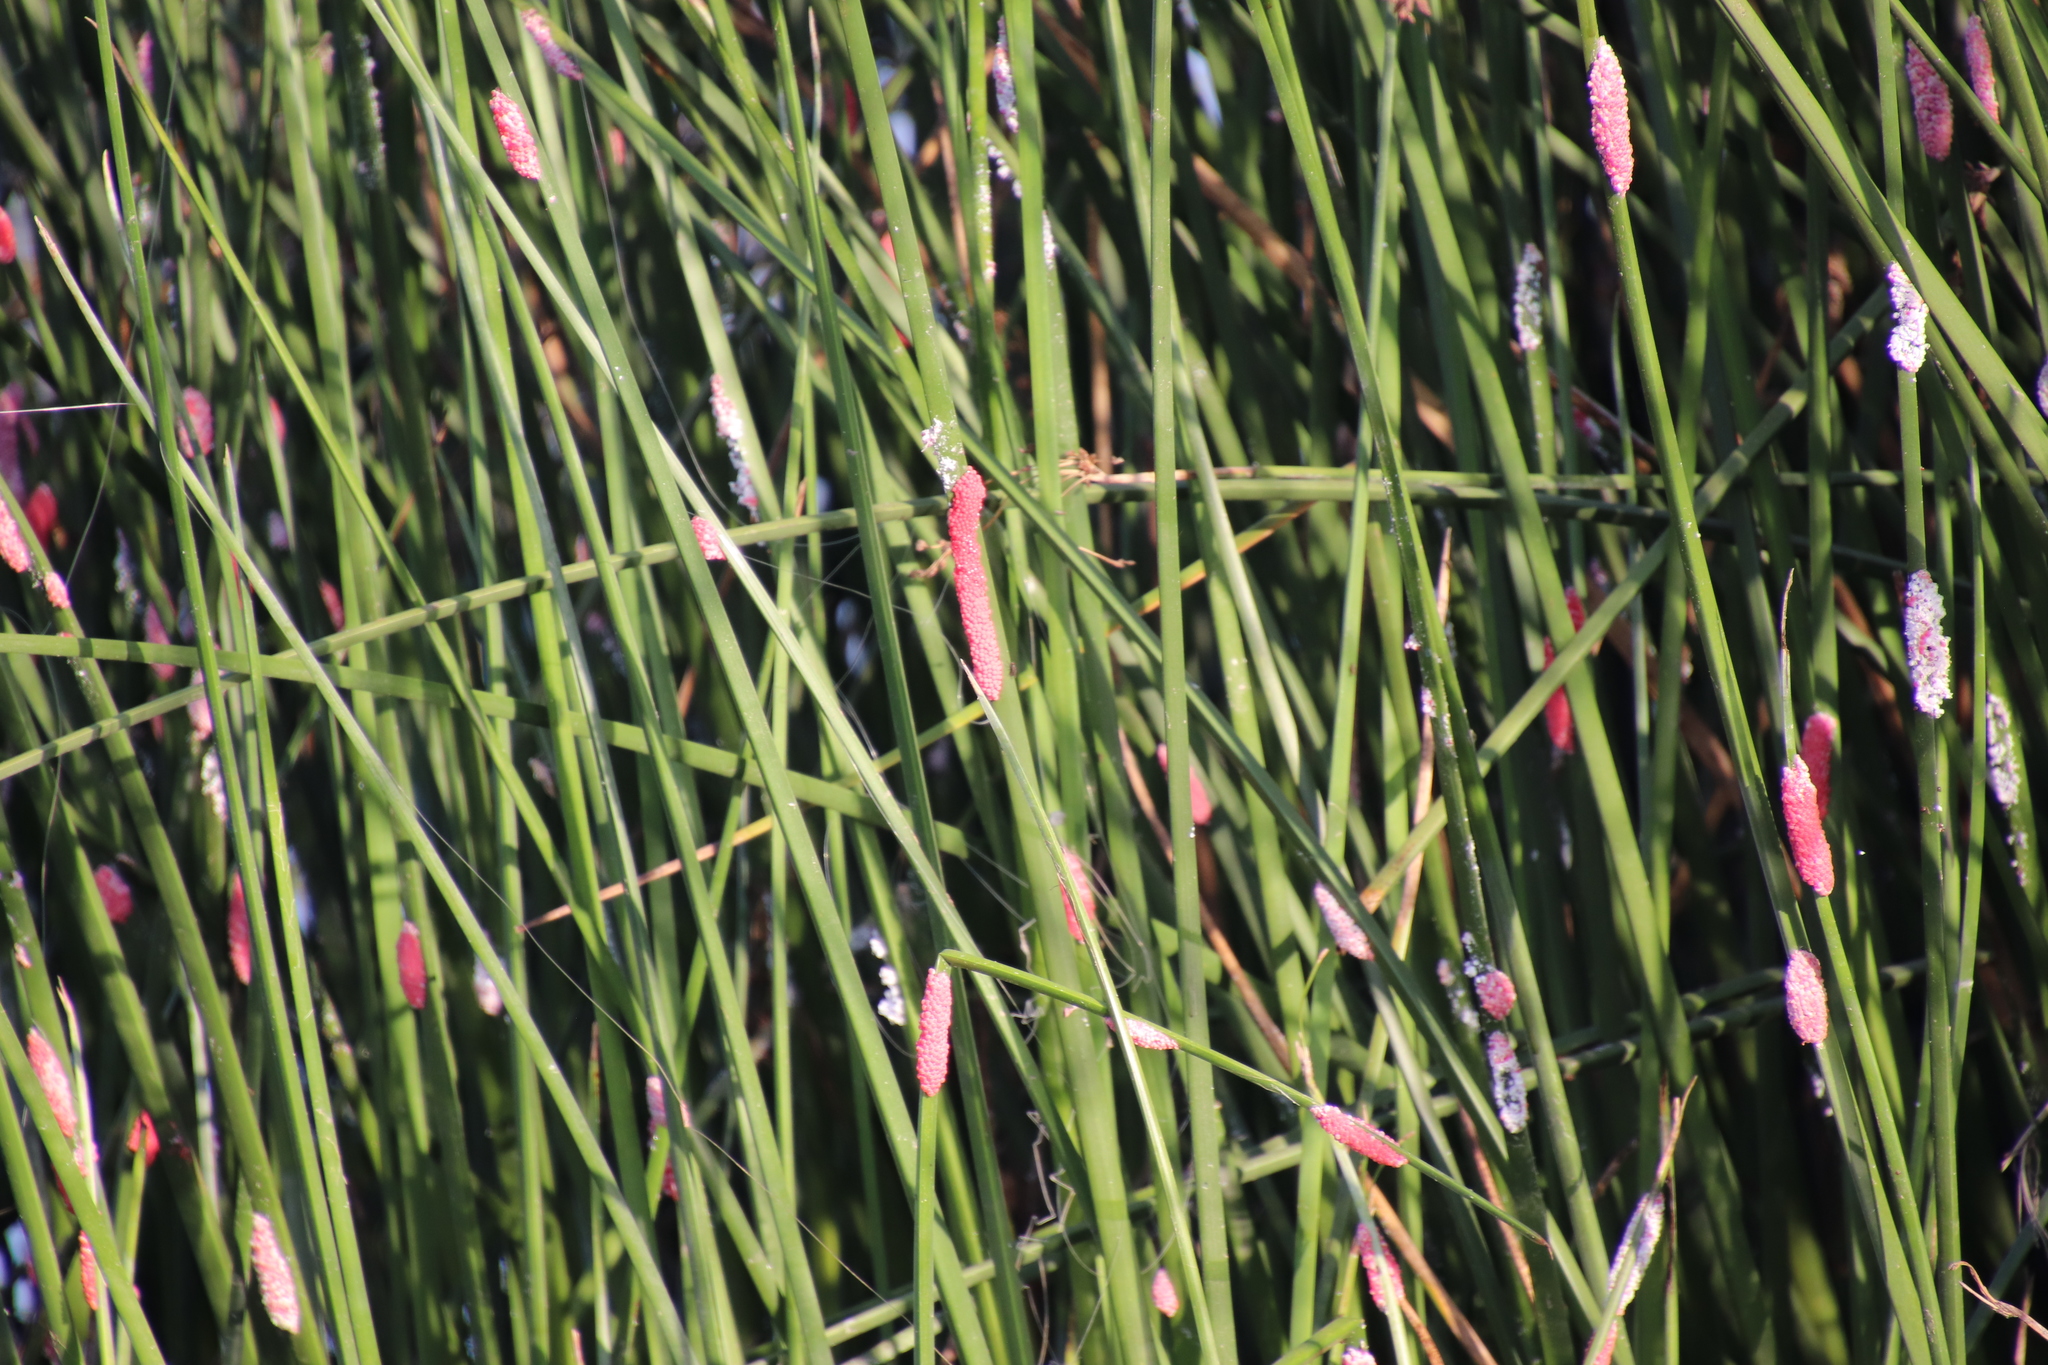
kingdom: Animalia
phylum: Mollusca
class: Gastropoda
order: Architaenioglossa
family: Ampullariidae
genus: Pomacea
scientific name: Pomacea canaliculata
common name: Channeled applesnail
